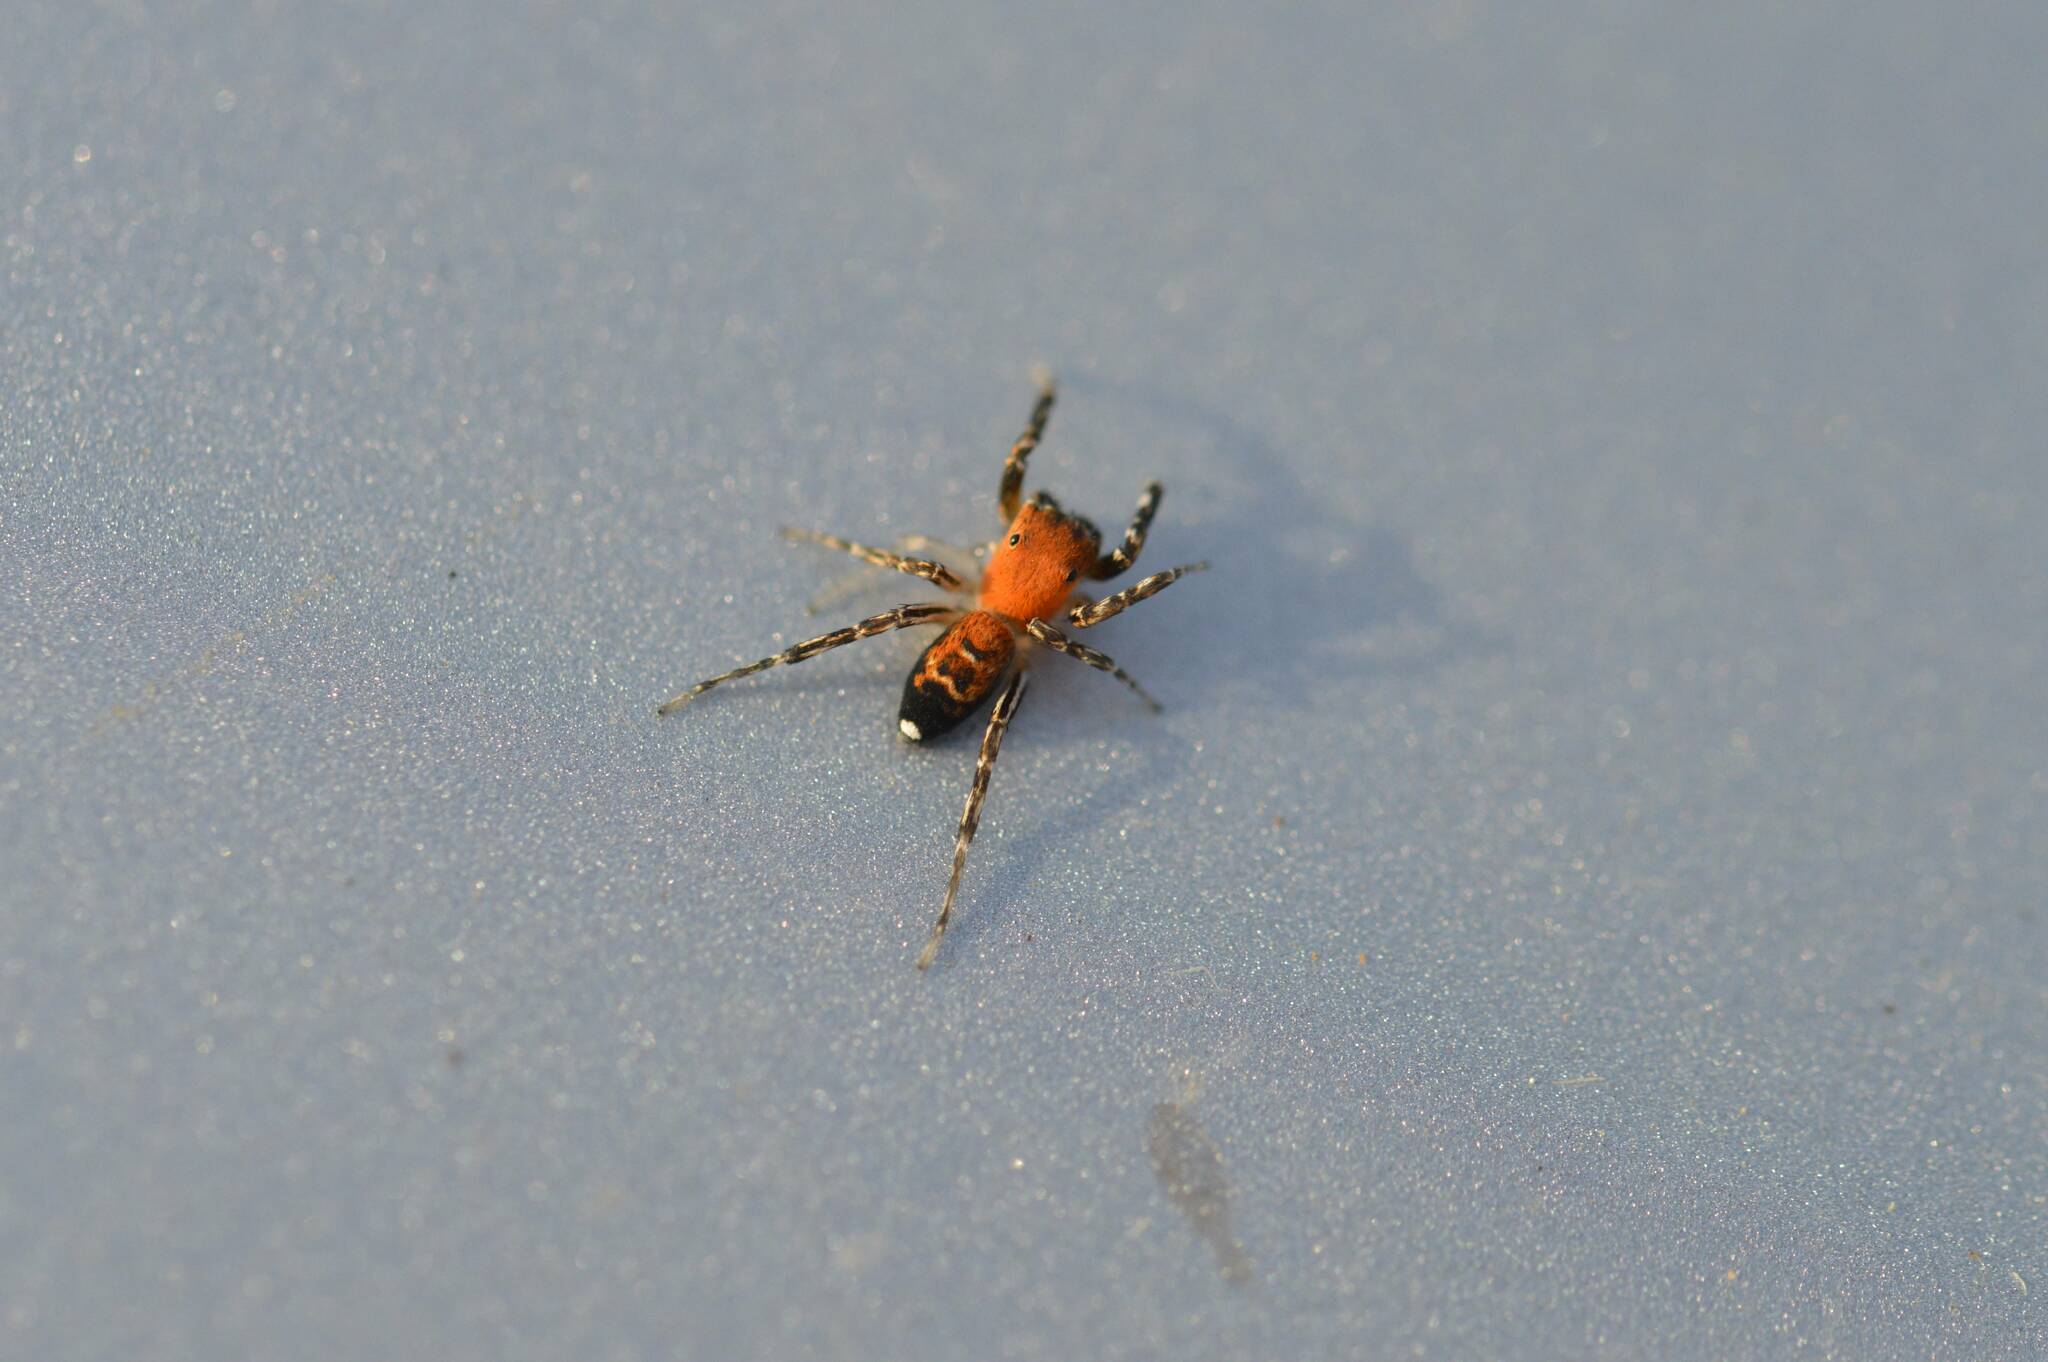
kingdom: Animalia
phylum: Arthropoda
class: Arachnida
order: Araneae
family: Salticidae
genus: Cyrba
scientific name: Cyrba algerina
